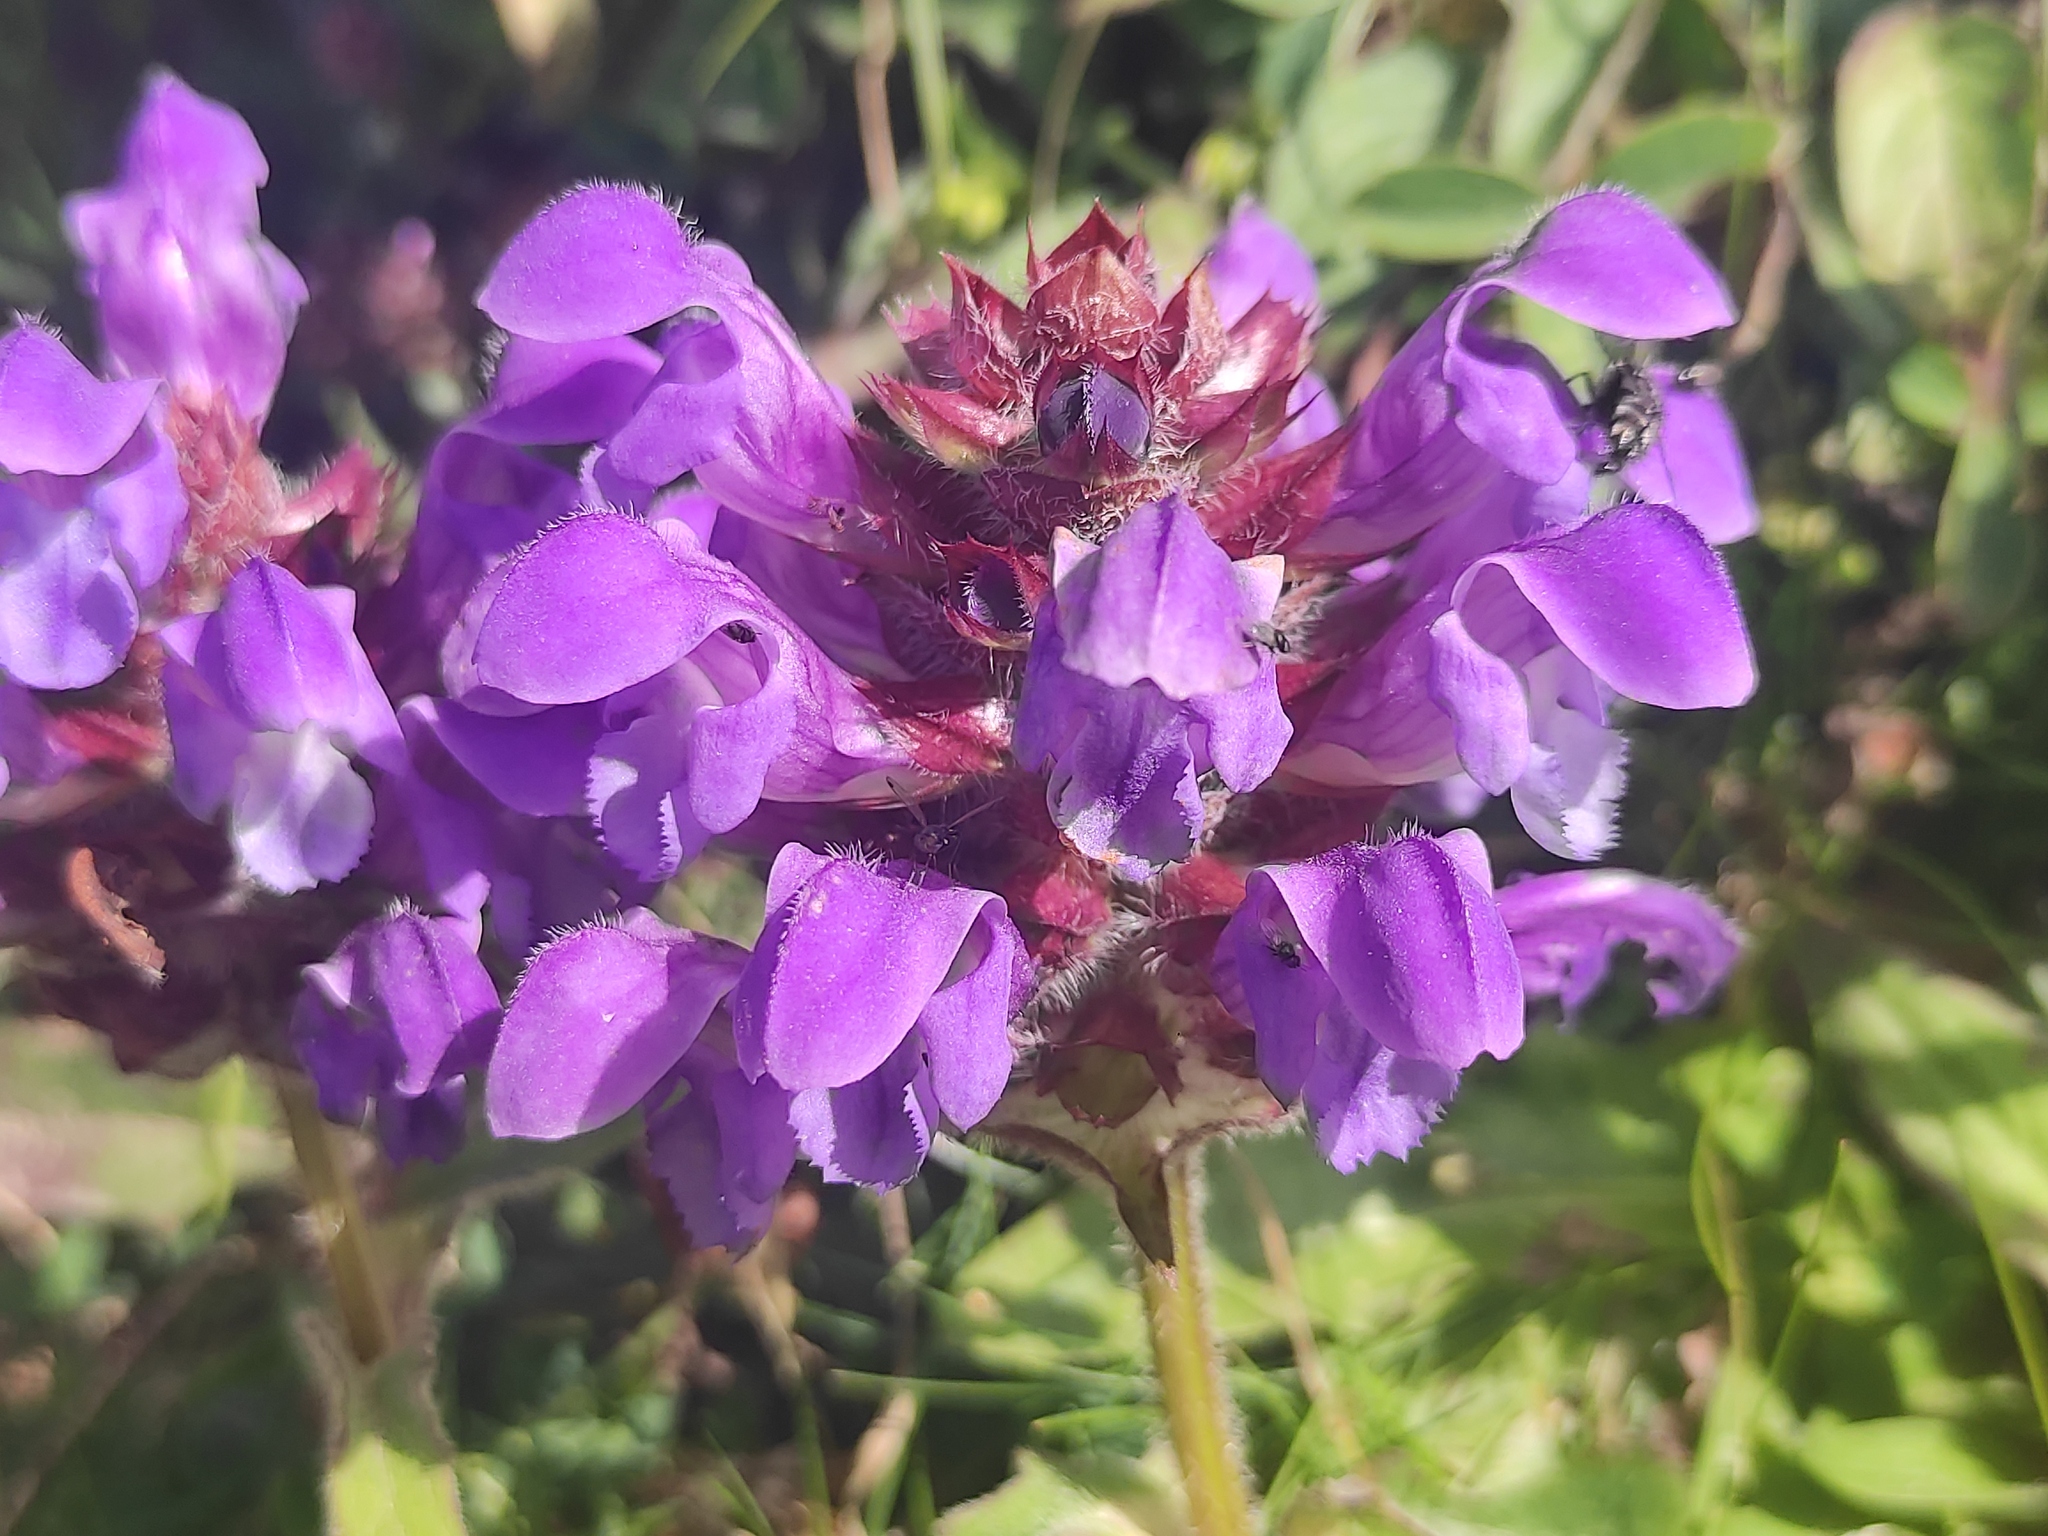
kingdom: Plantae
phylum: Tracheophyta
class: Magnoliopsida
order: Lamiales
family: Lamiaceae
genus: Prunella
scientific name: Prunella grandiflora
